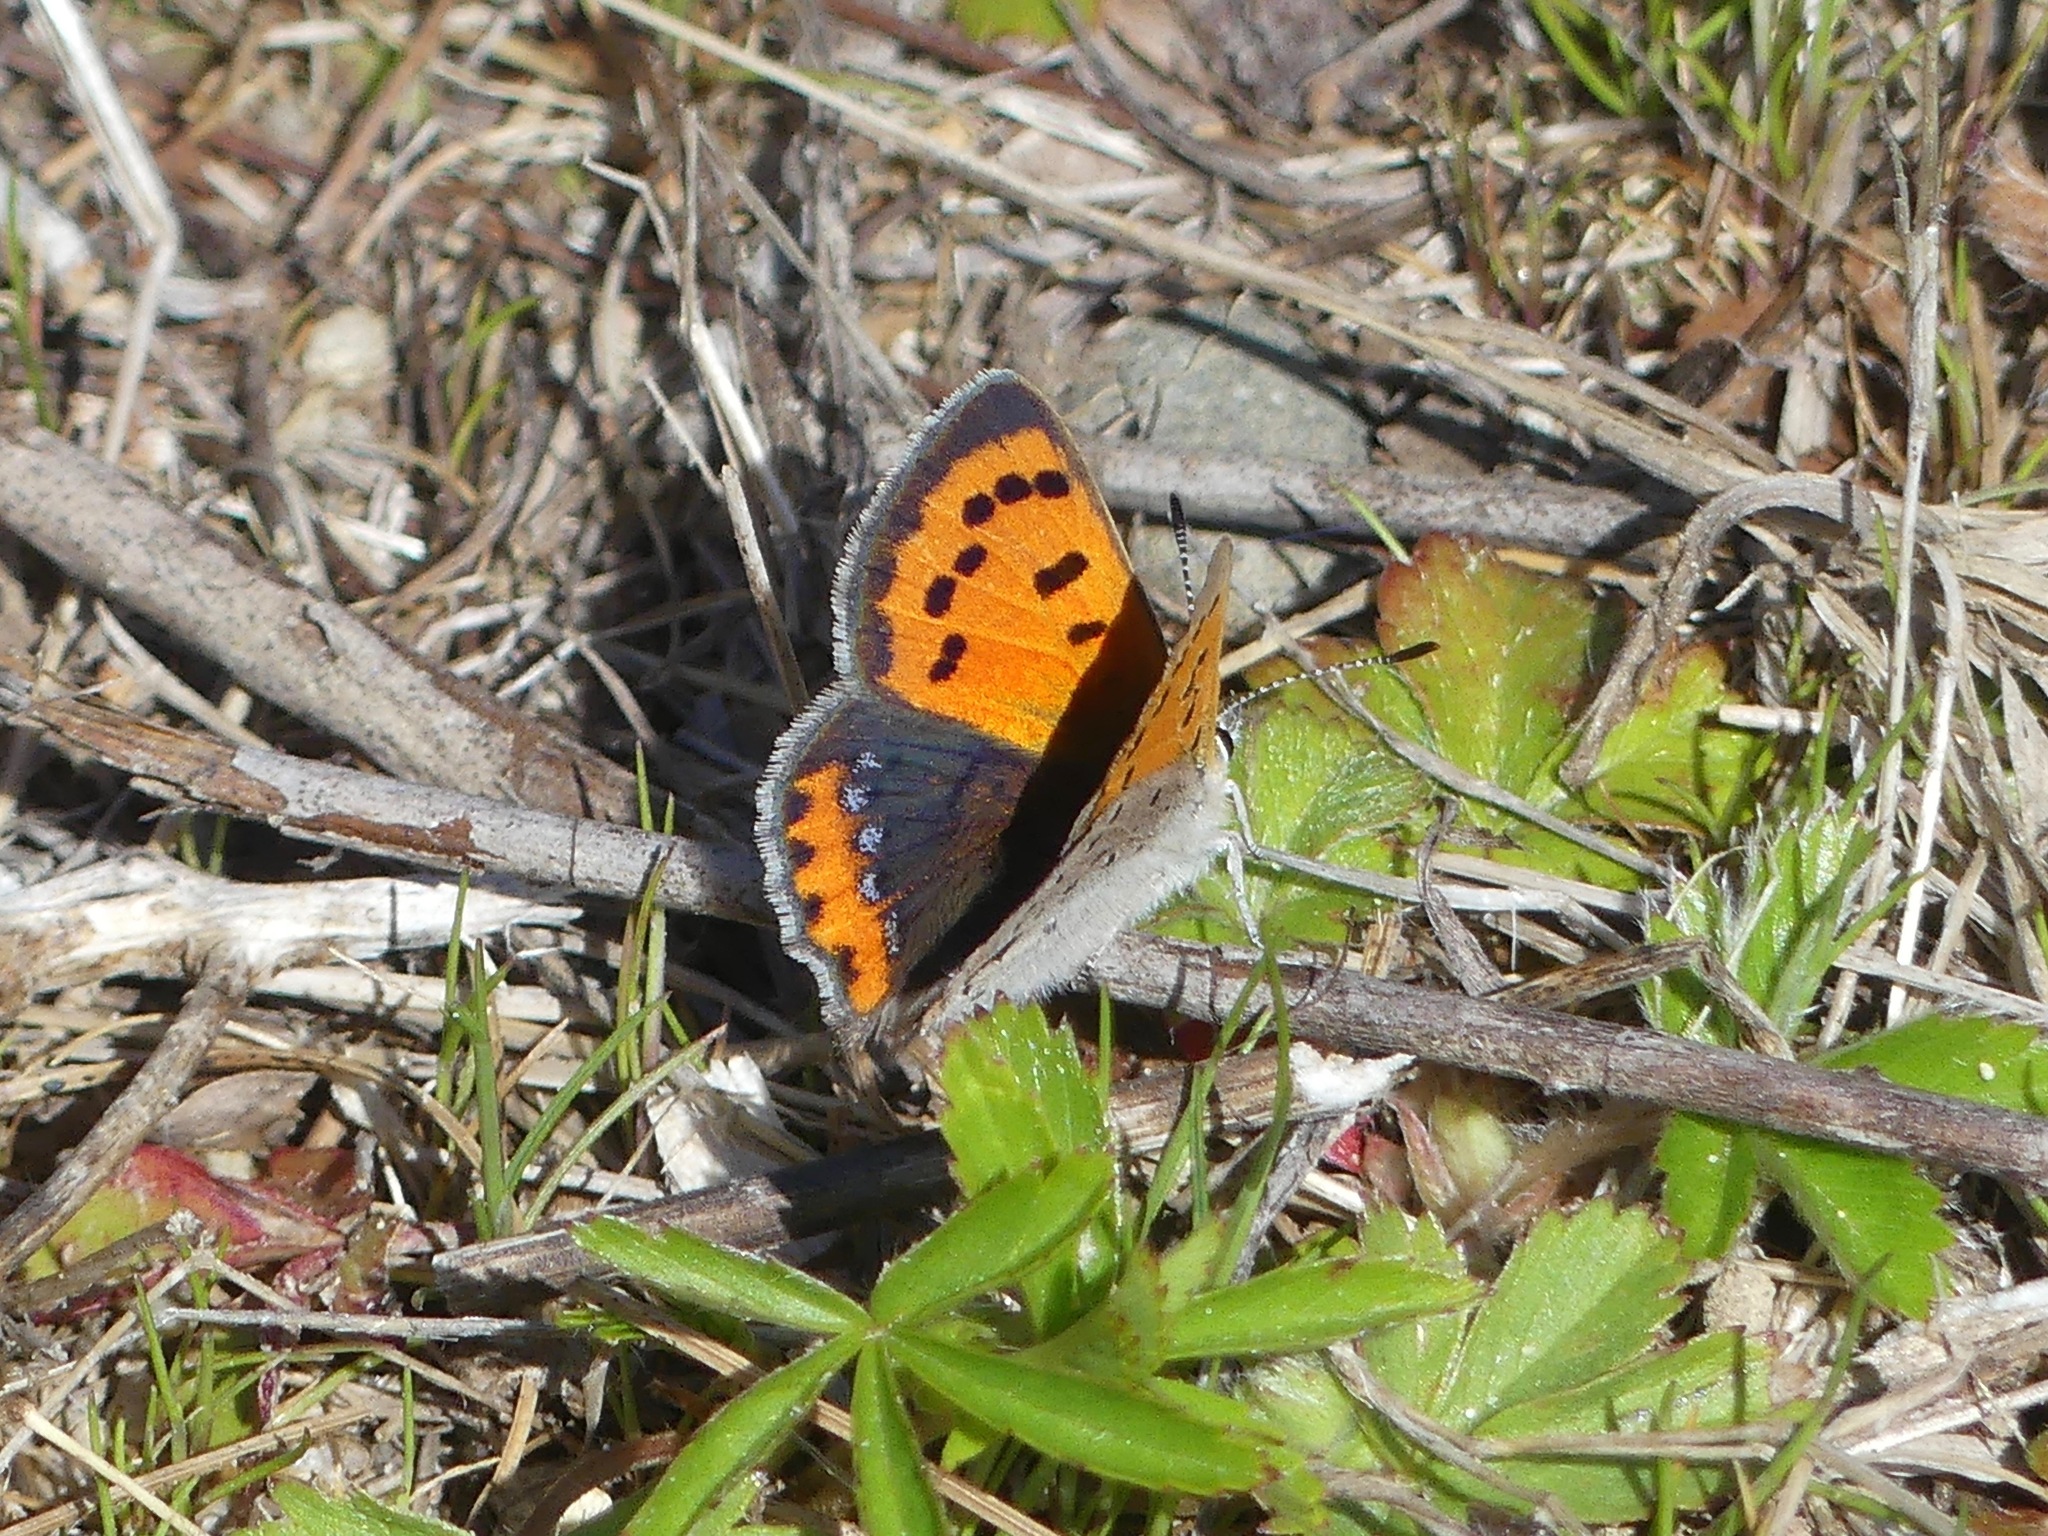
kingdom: Animalia
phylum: Arthropoda
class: Insecta
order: Lepidoptera
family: Lycaenidae
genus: Lycaena
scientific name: Lycaena hypophlaeas
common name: American copper
